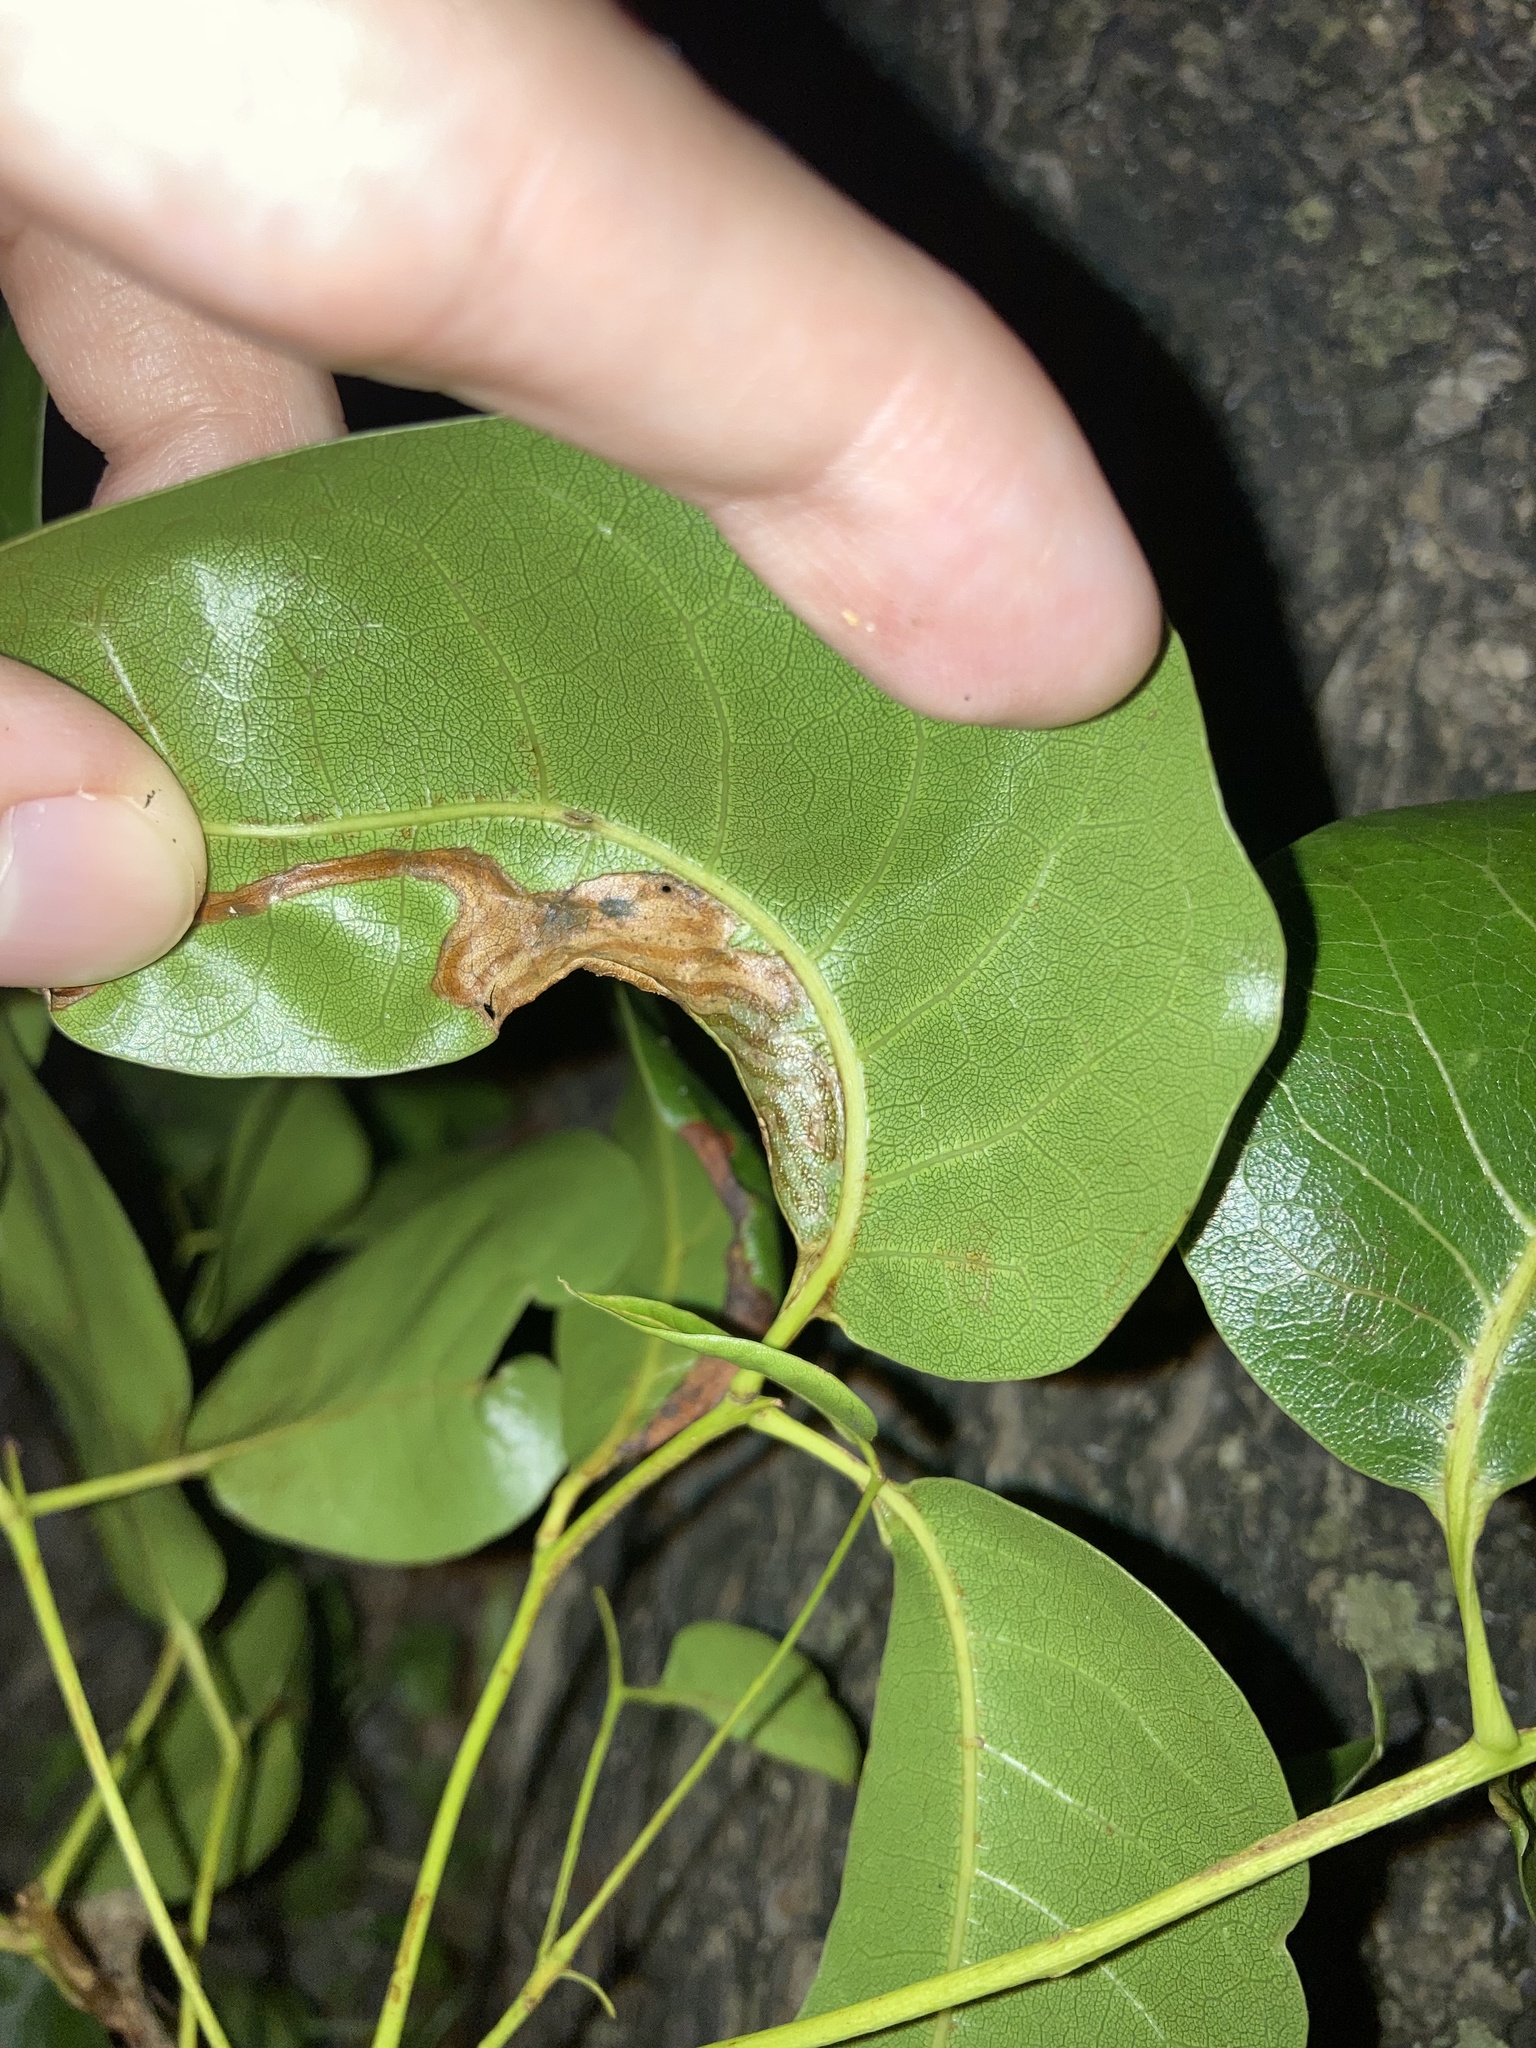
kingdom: Animalia
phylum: Arthropoda
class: Insecta
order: Lepidoptera
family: Gracillariidae
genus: Phyllocnistis
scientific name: Phyllocnistis meliacella
